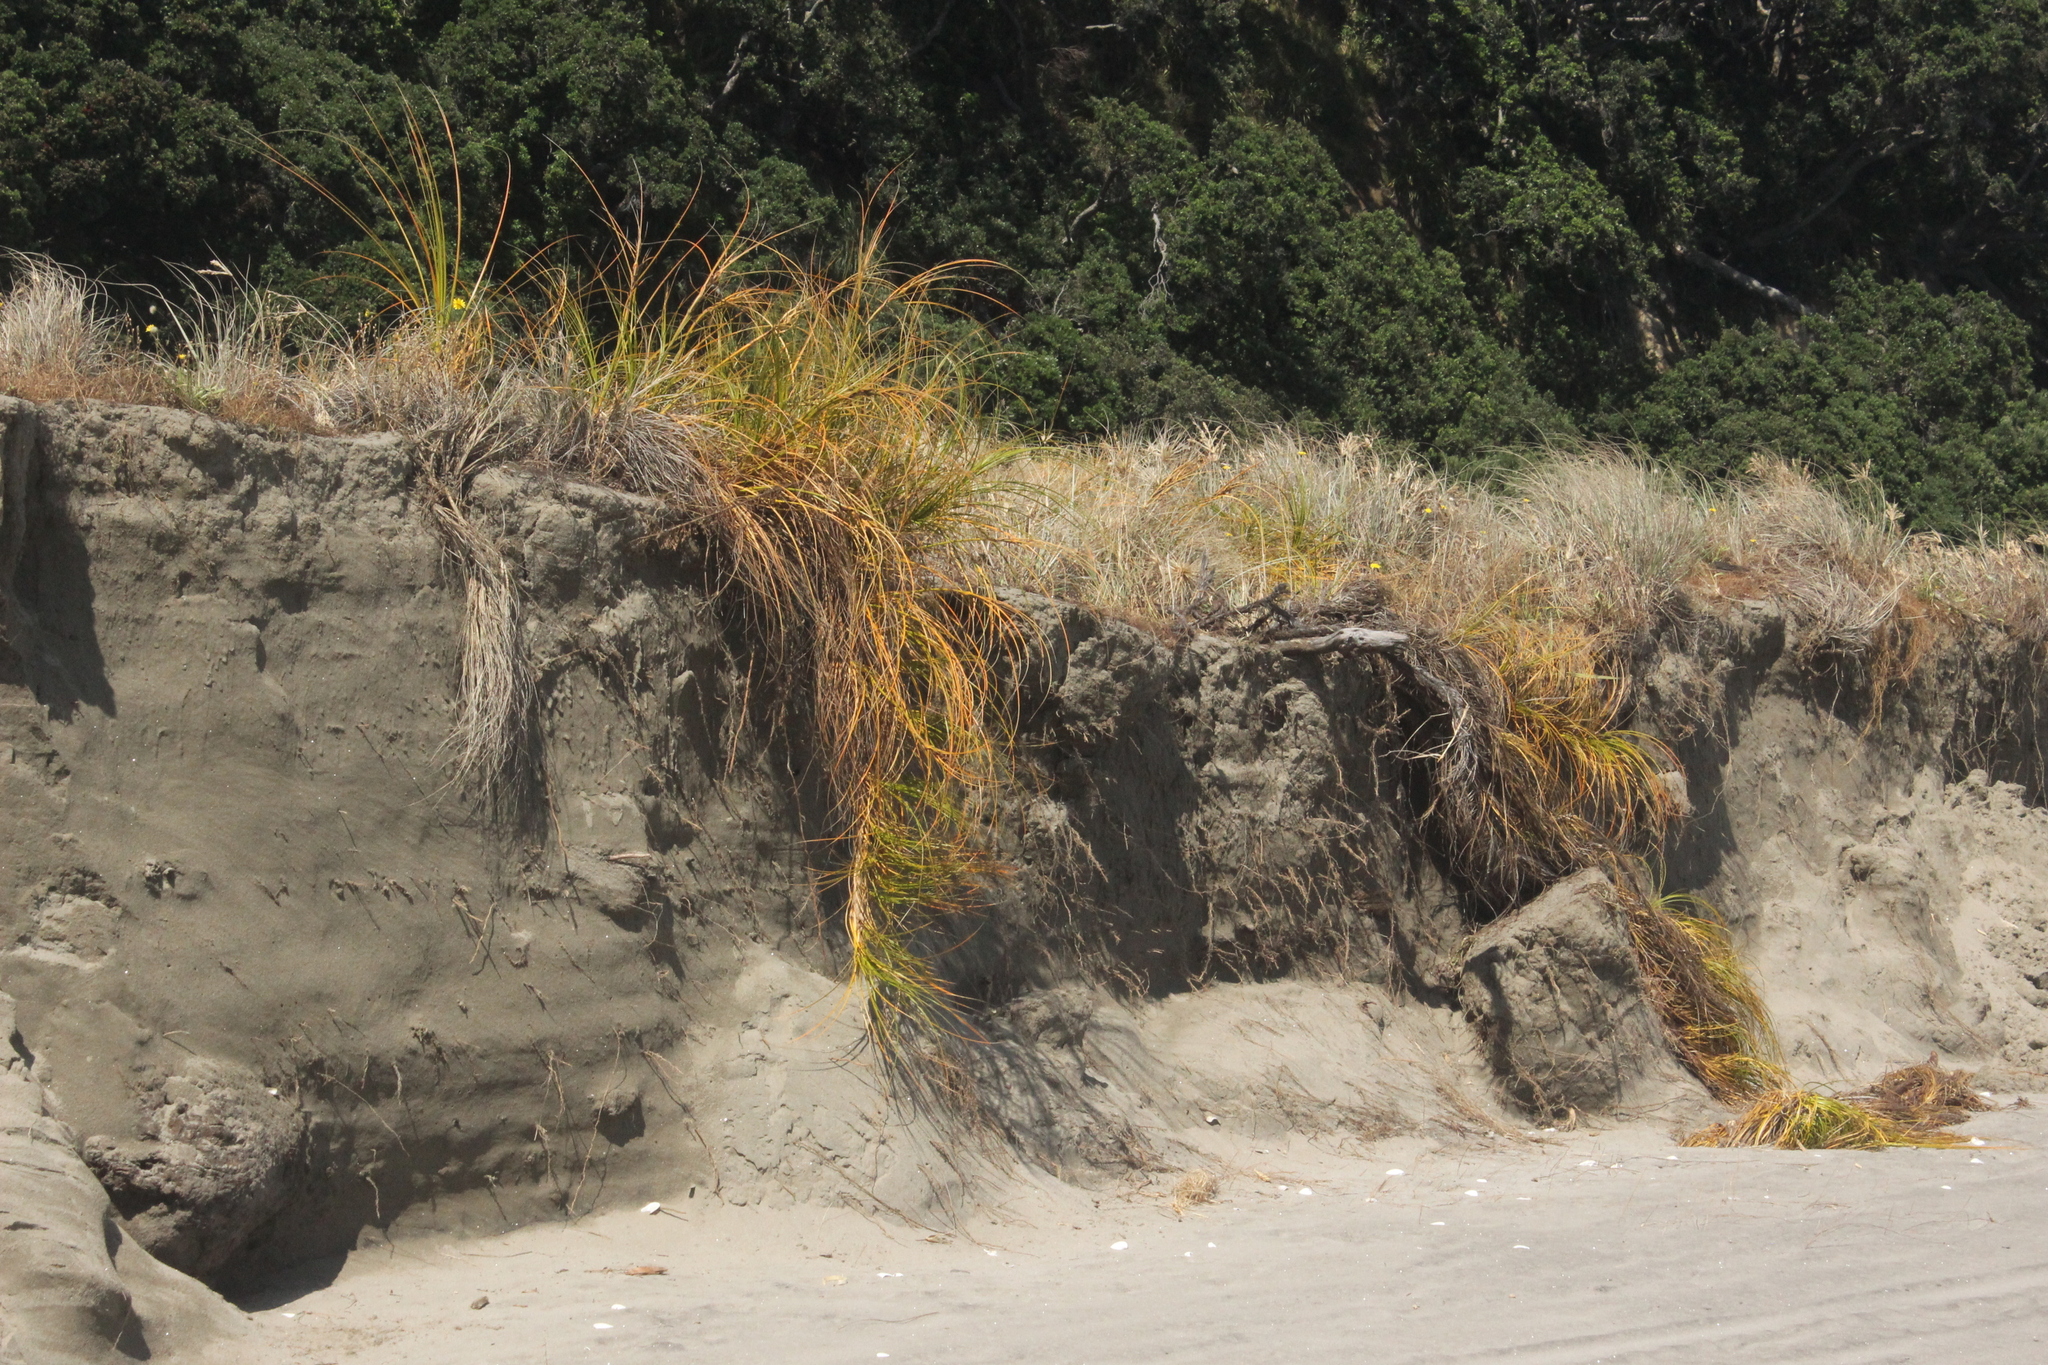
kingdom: Plantae
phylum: Tracheophyta
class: Liliopsida
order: Poales
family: Cyperaceae
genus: Ficinia
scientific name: Ficinia spiralis
